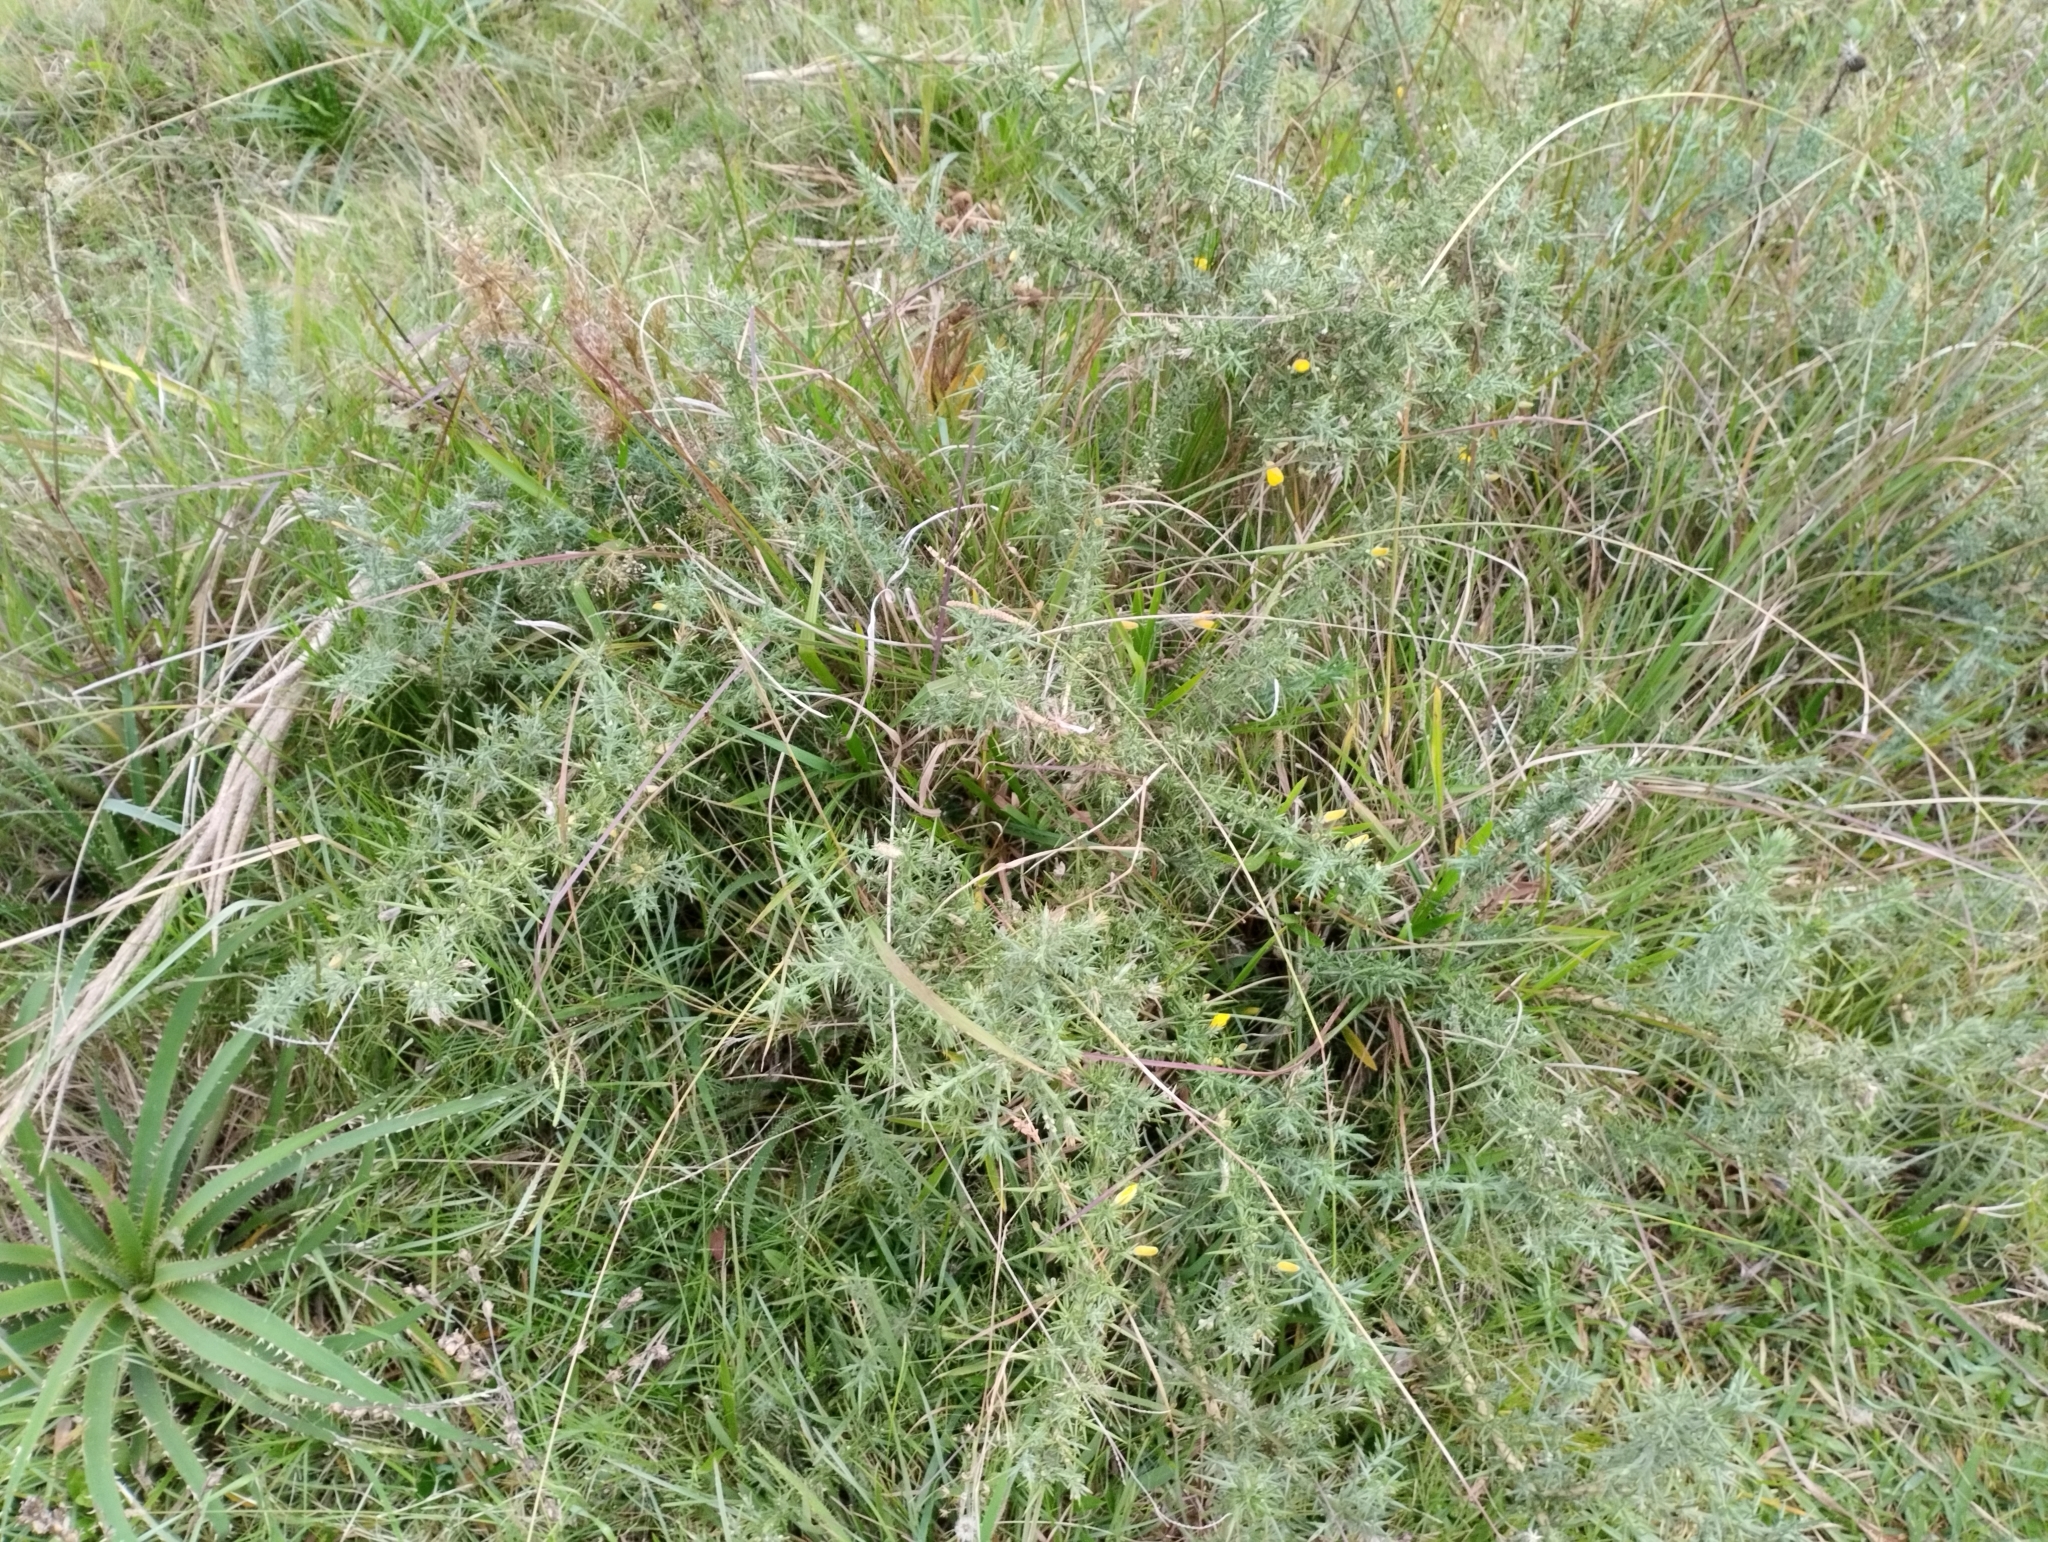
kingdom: Plantae
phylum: Tracheophyta
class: Magnoliopsida
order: Fabales
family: Fabaceae
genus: Ulex
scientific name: Ulex europaeus
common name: Common gorse
